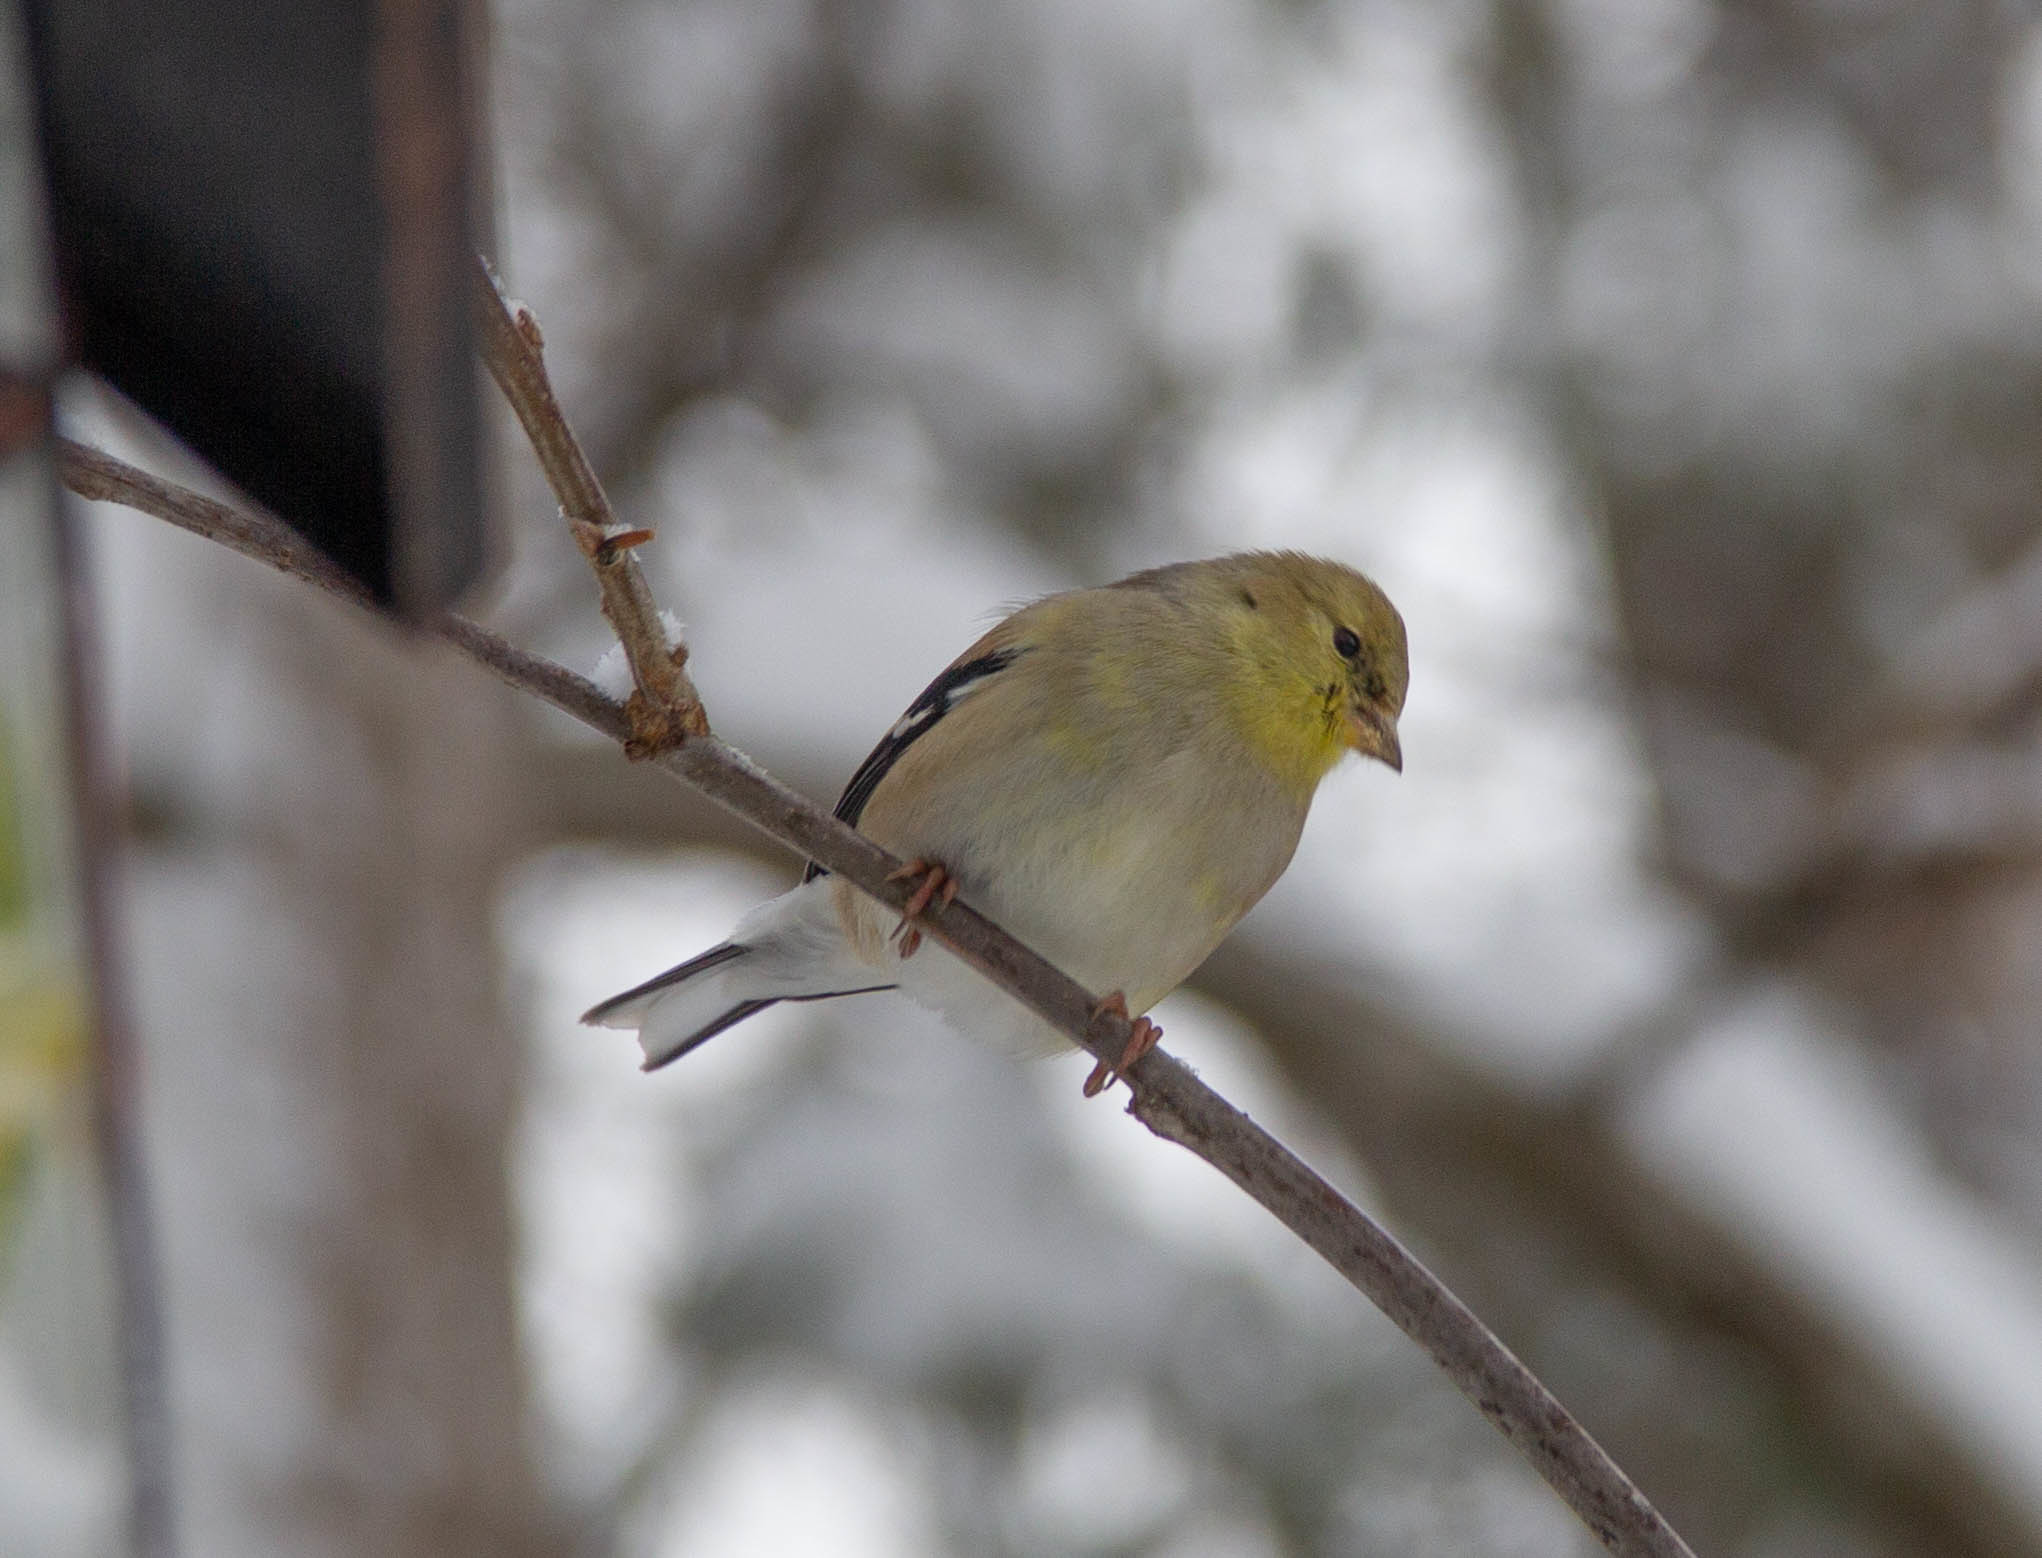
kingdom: Animalia
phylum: Chordata
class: Aves
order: Passeriformes
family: Fringillidae
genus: Spinus
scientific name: Spinus tristis
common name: American goldfinch
